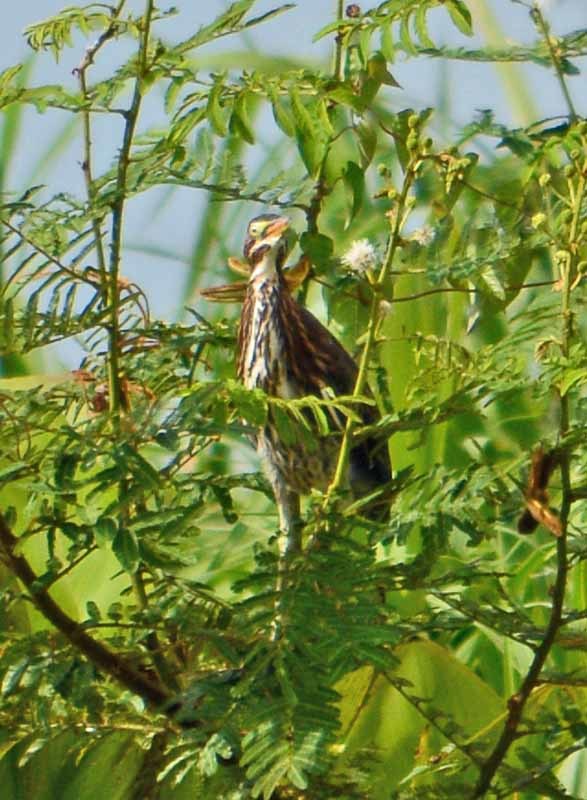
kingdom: Animalia
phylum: Chordata
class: Aves
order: Pelecaniformes
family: Ardeidae
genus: Butorides
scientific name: Butorides virescens
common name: Green heron
